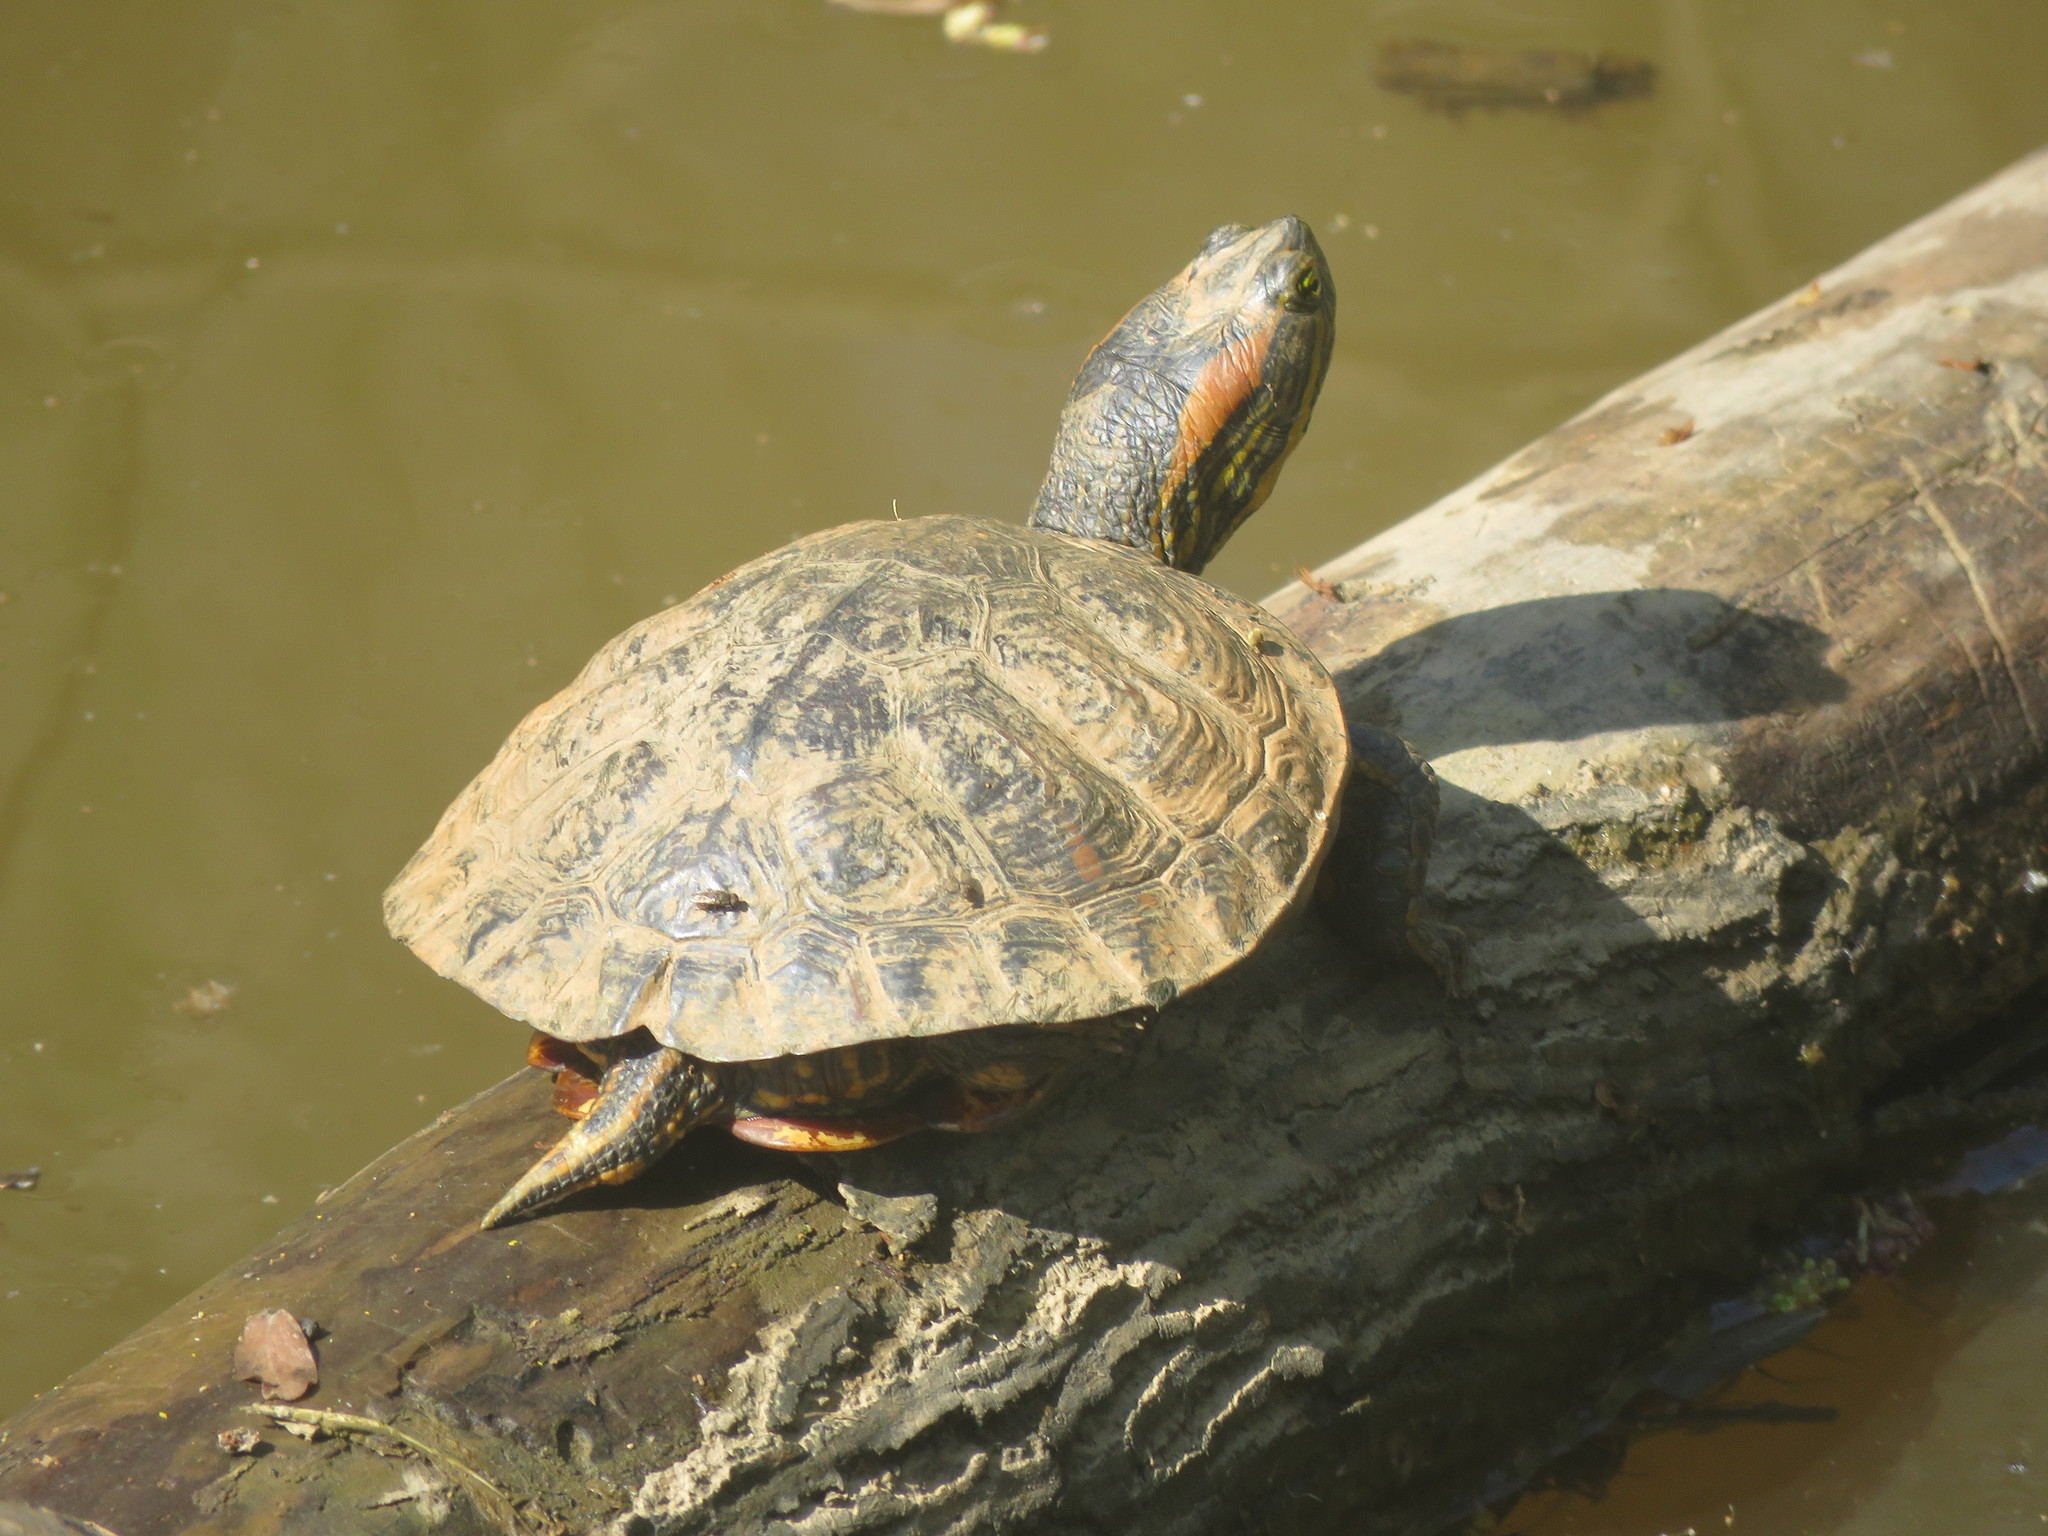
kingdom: Animalia
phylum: Chordata
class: Testudines
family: Emydidae
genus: Trachemys
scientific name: Trachemys dorbigni
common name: Black-bellied slider
